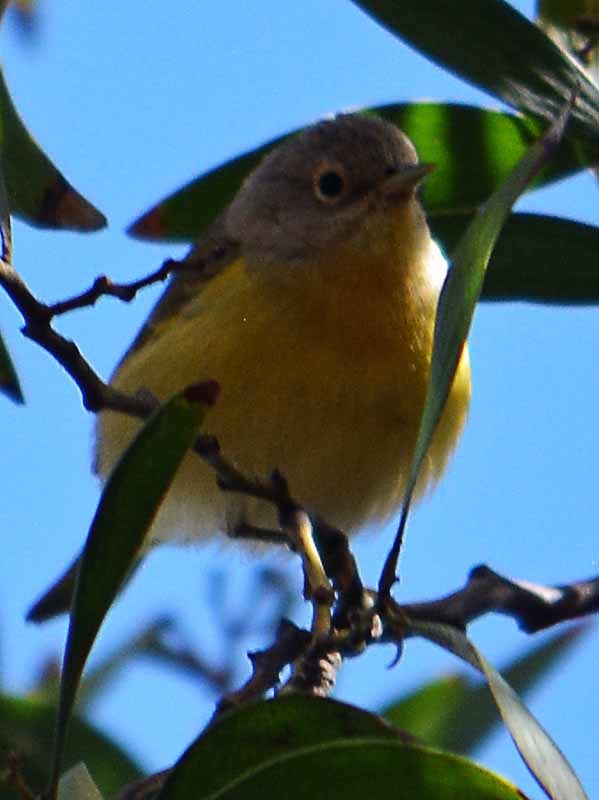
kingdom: Animalia
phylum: Chordata
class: Aves
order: Passeriformes
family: Parulidae
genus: Leiothlypis
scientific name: Leiothlypis ruficapilla
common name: Nashville warbler
